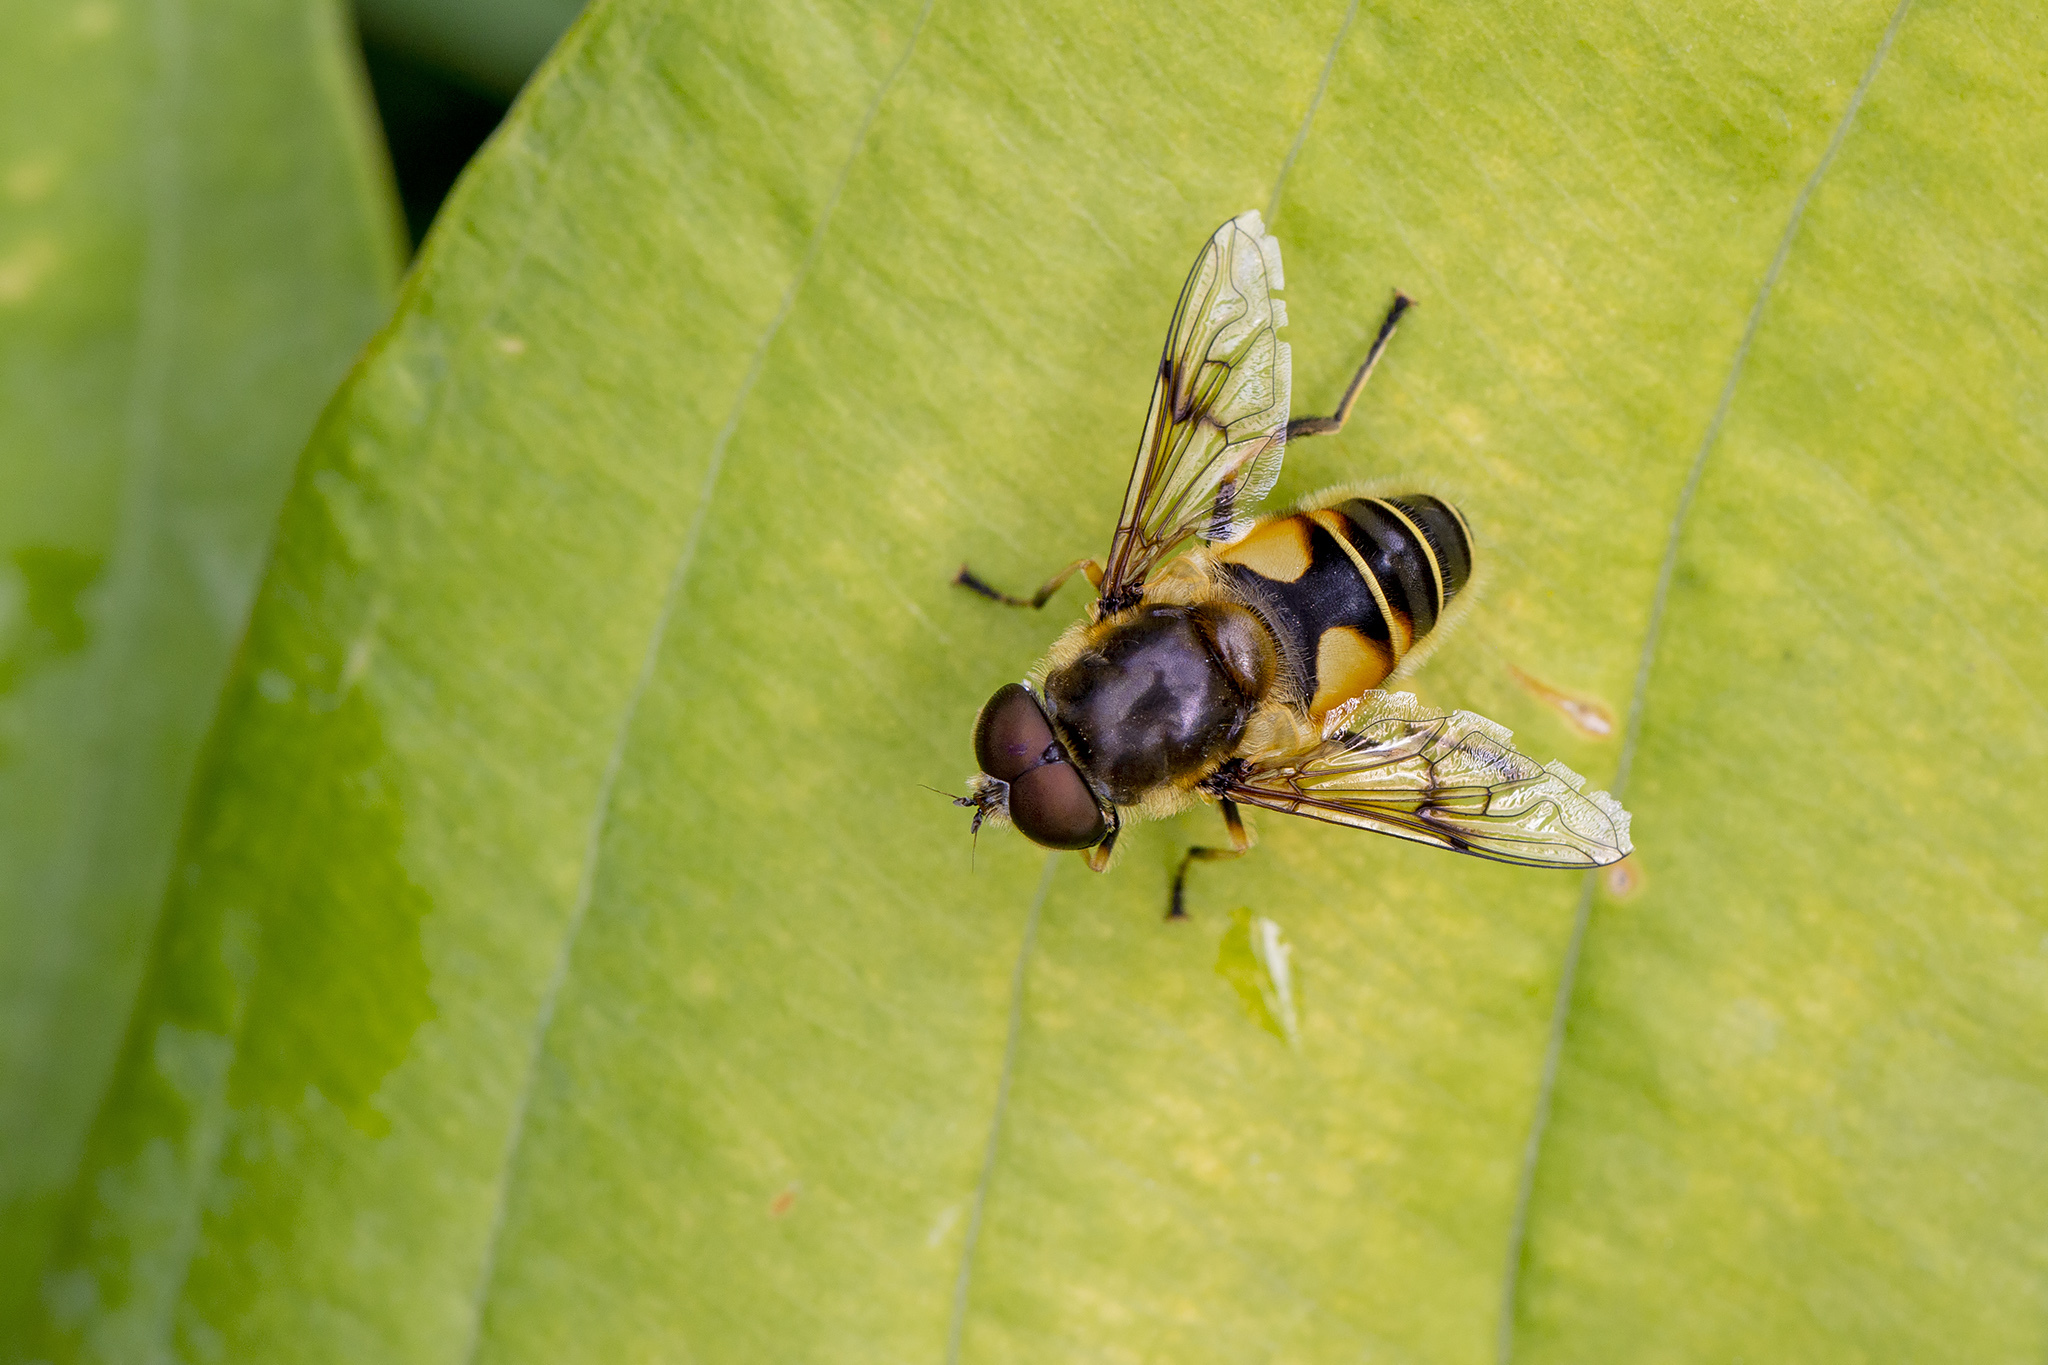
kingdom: Animalia
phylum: Arthropoda
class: Insecta
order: Diptera
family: Syrphidae
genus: Cheilosia
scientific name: Cheilosia morio
